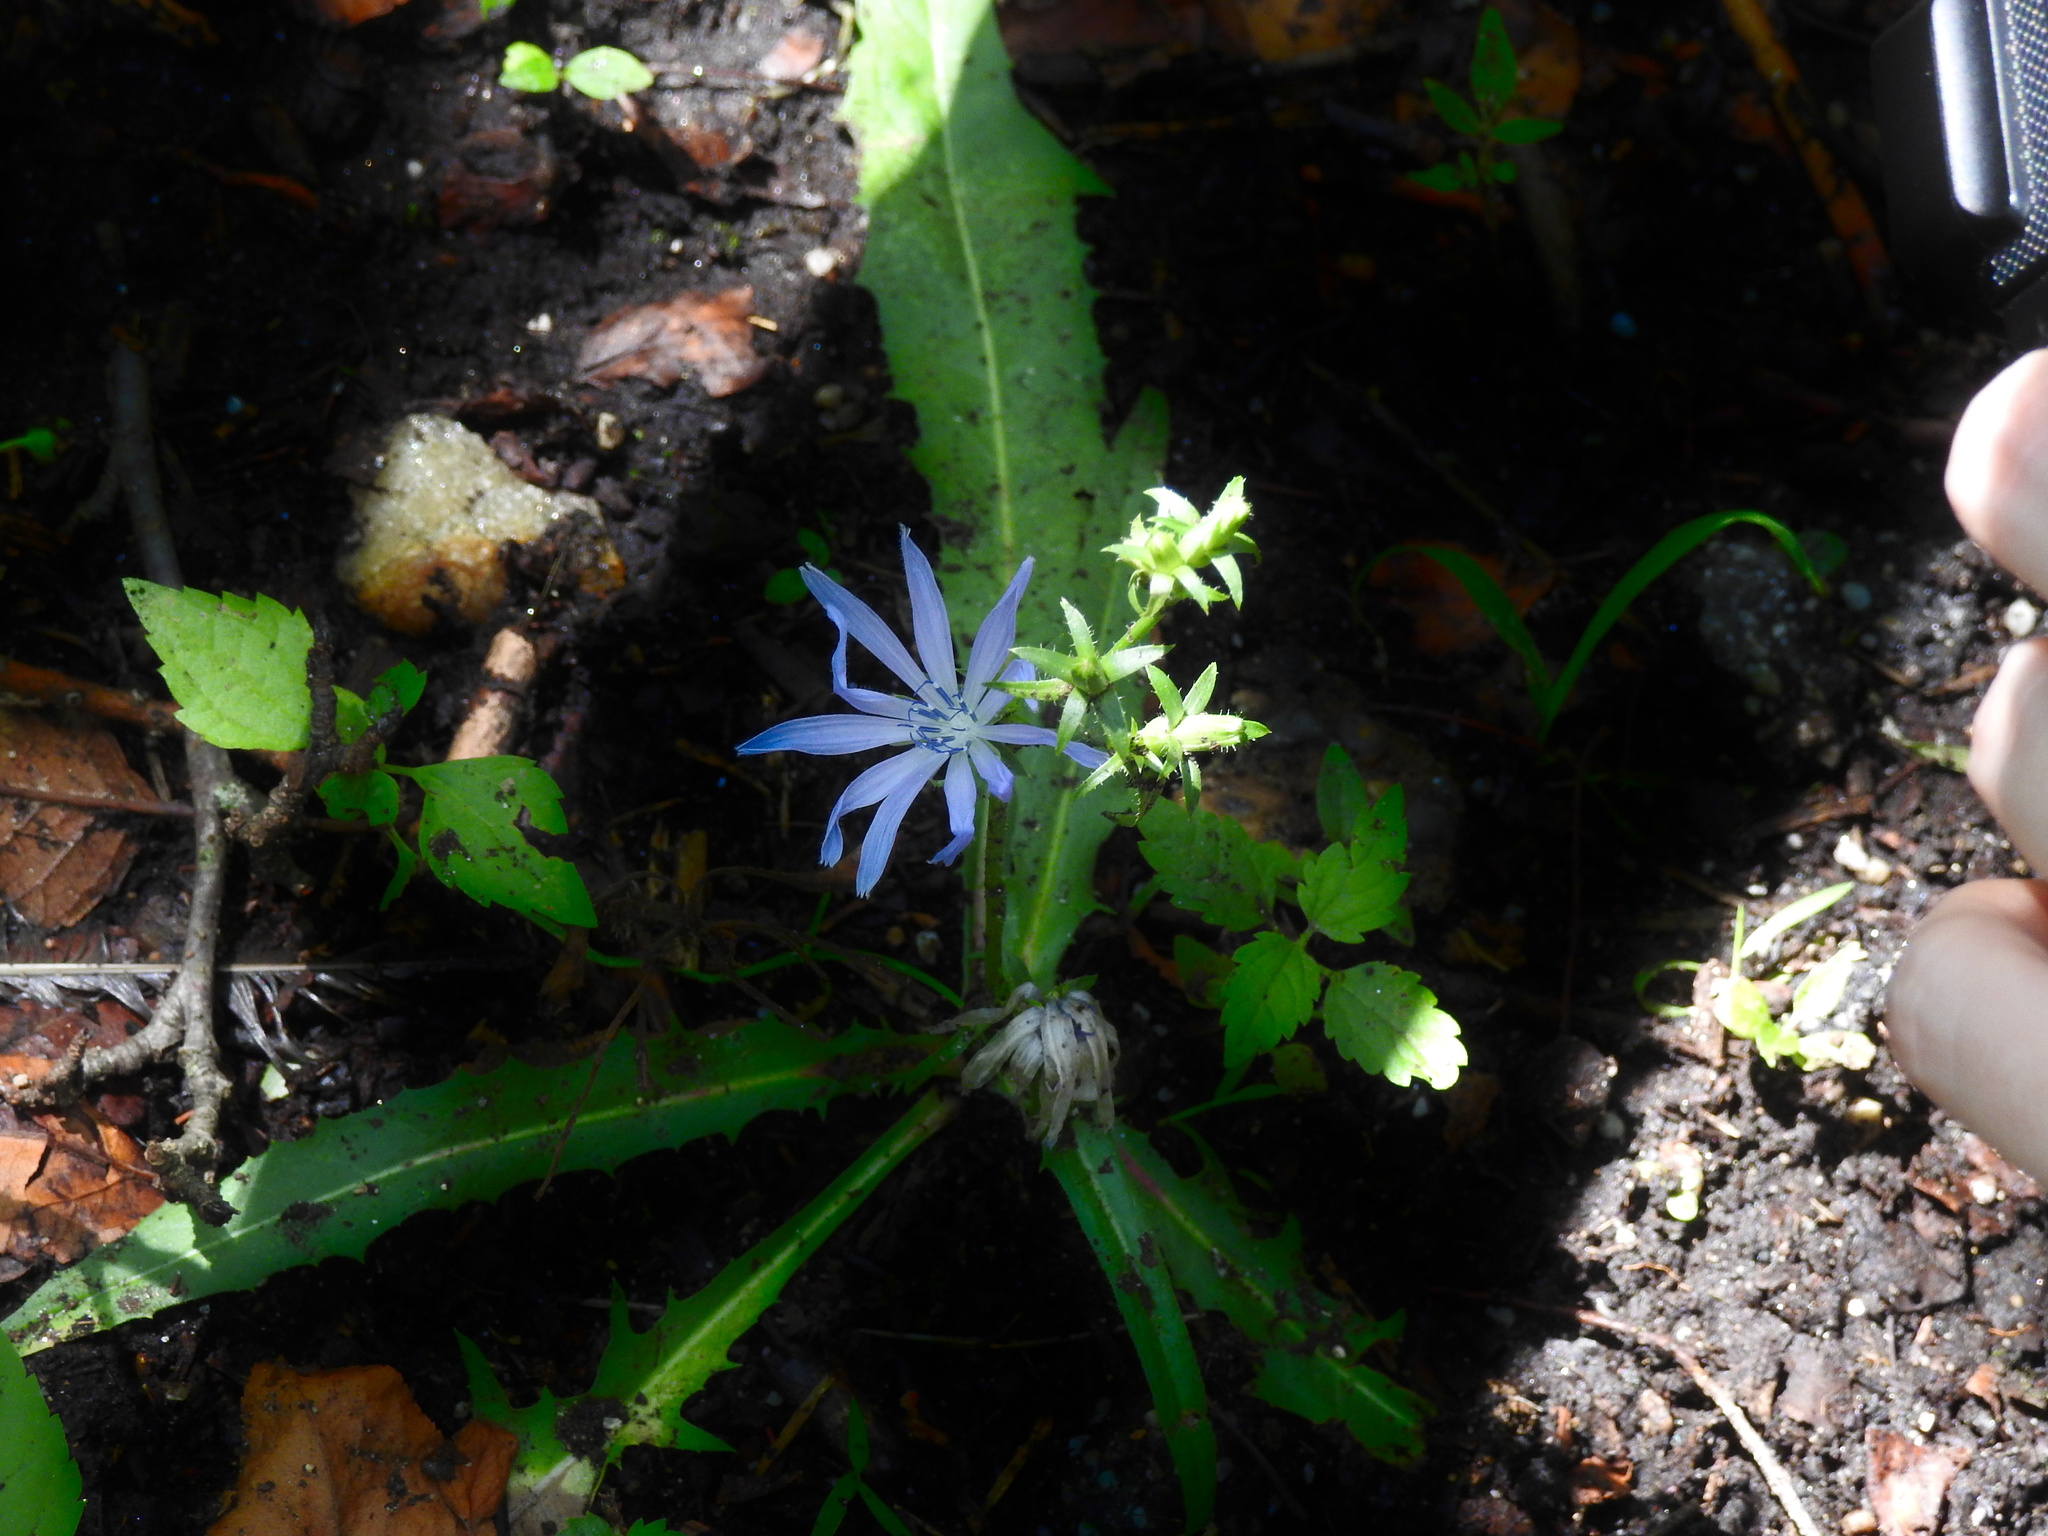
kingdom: Plantae
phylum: Tracheophyta
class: Magnoliopsida
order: Asterales
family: Asteraceae
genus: Cichorium
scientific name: Cichorium intybus
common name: Chicory
